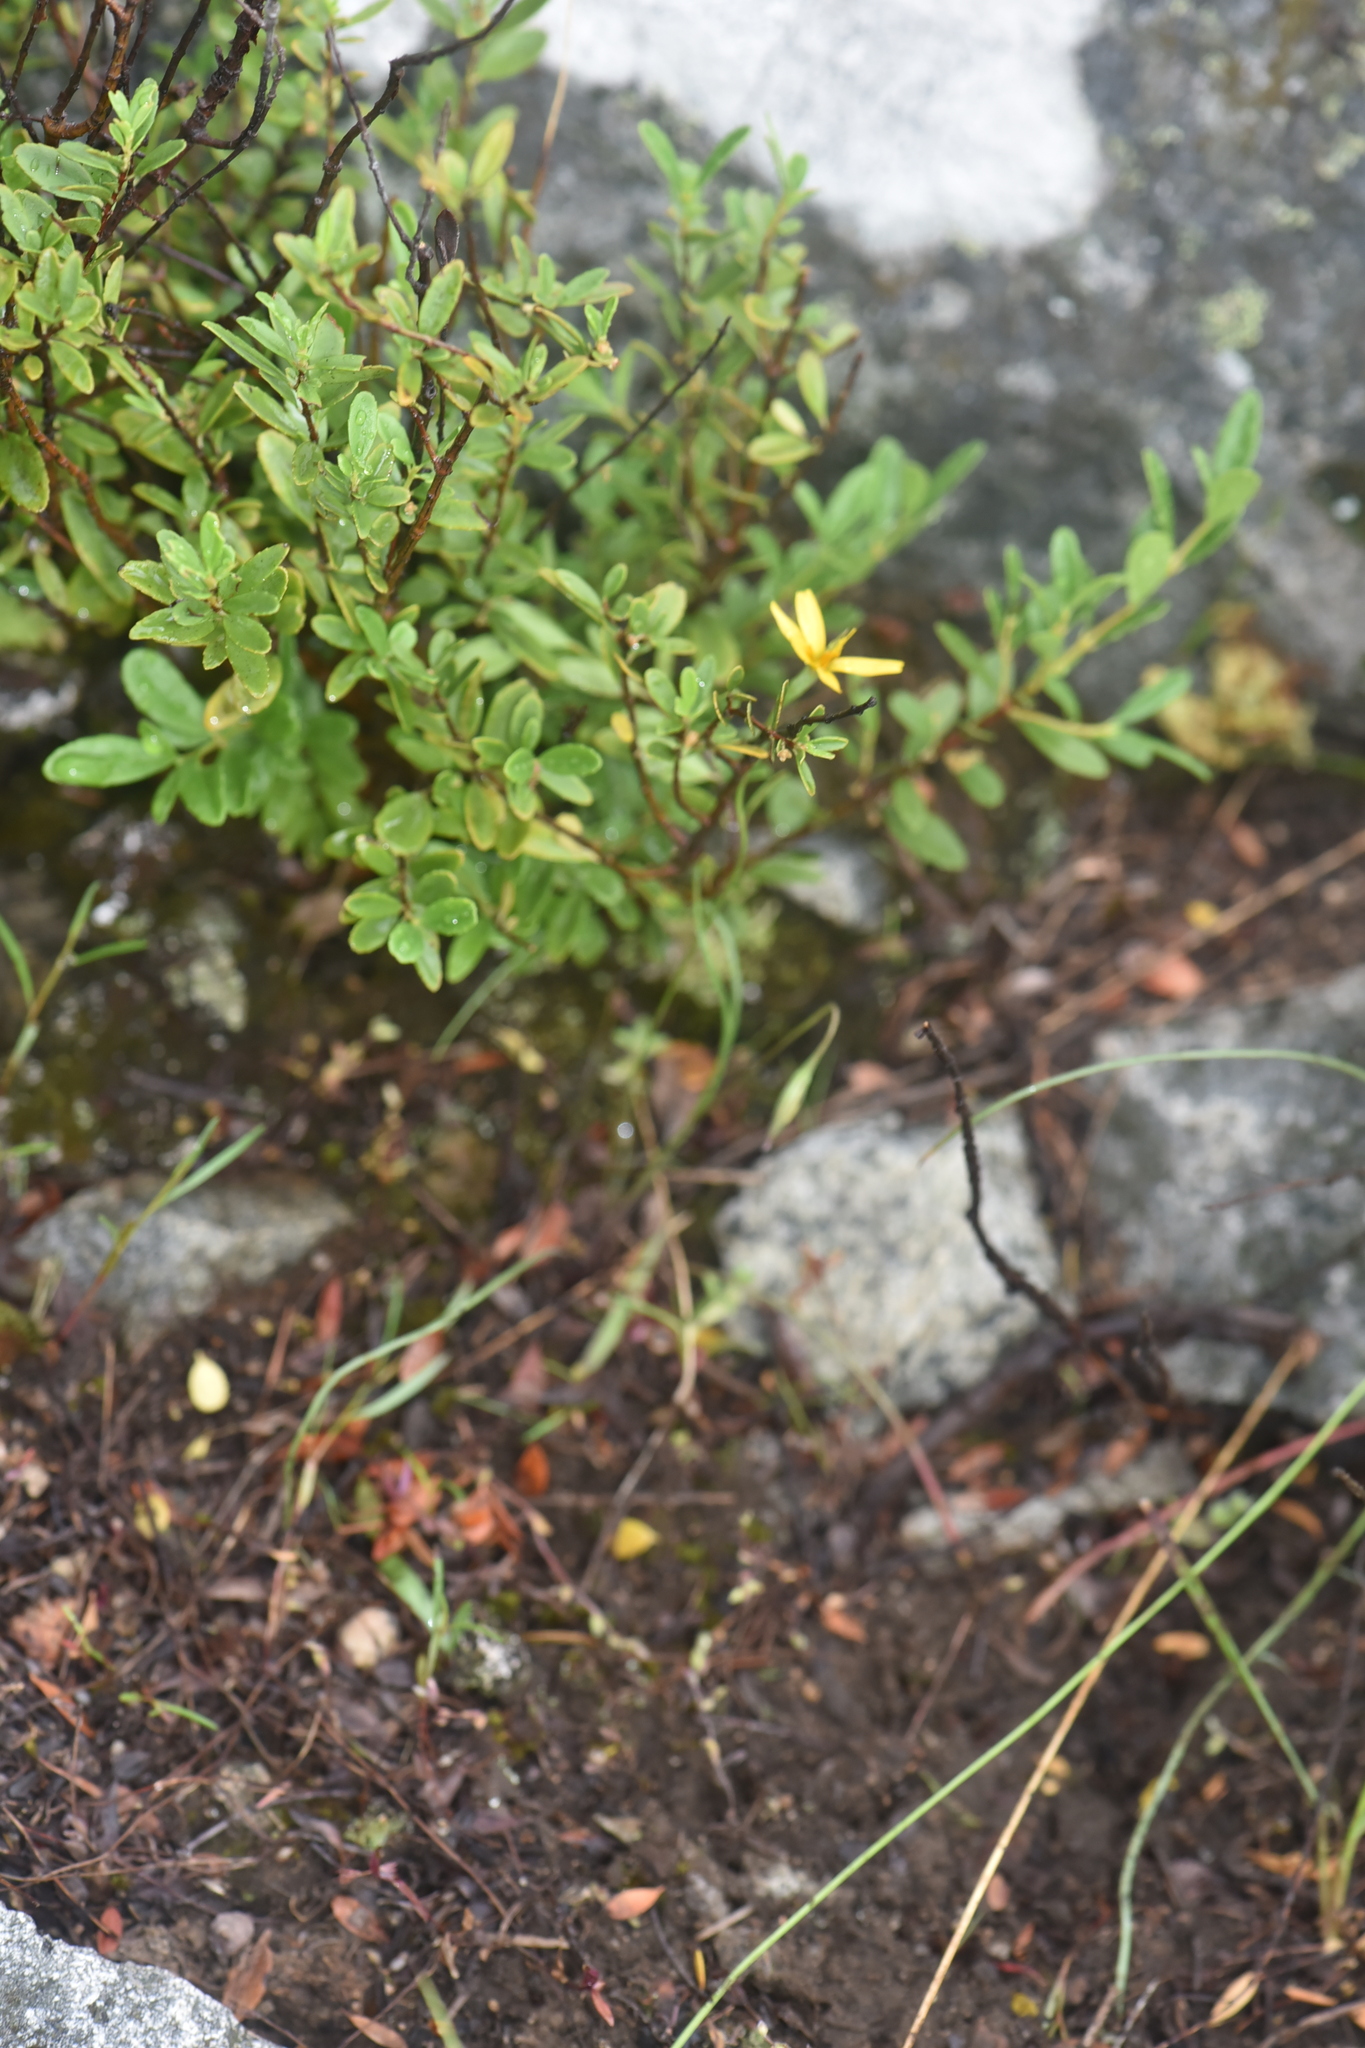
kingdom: Plantae
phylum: Tracheophyta
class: Liliopsida
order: Asparagales
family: Amaryllidaceae
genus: Allium
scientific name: Allium cernuum
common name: Nodding onion
